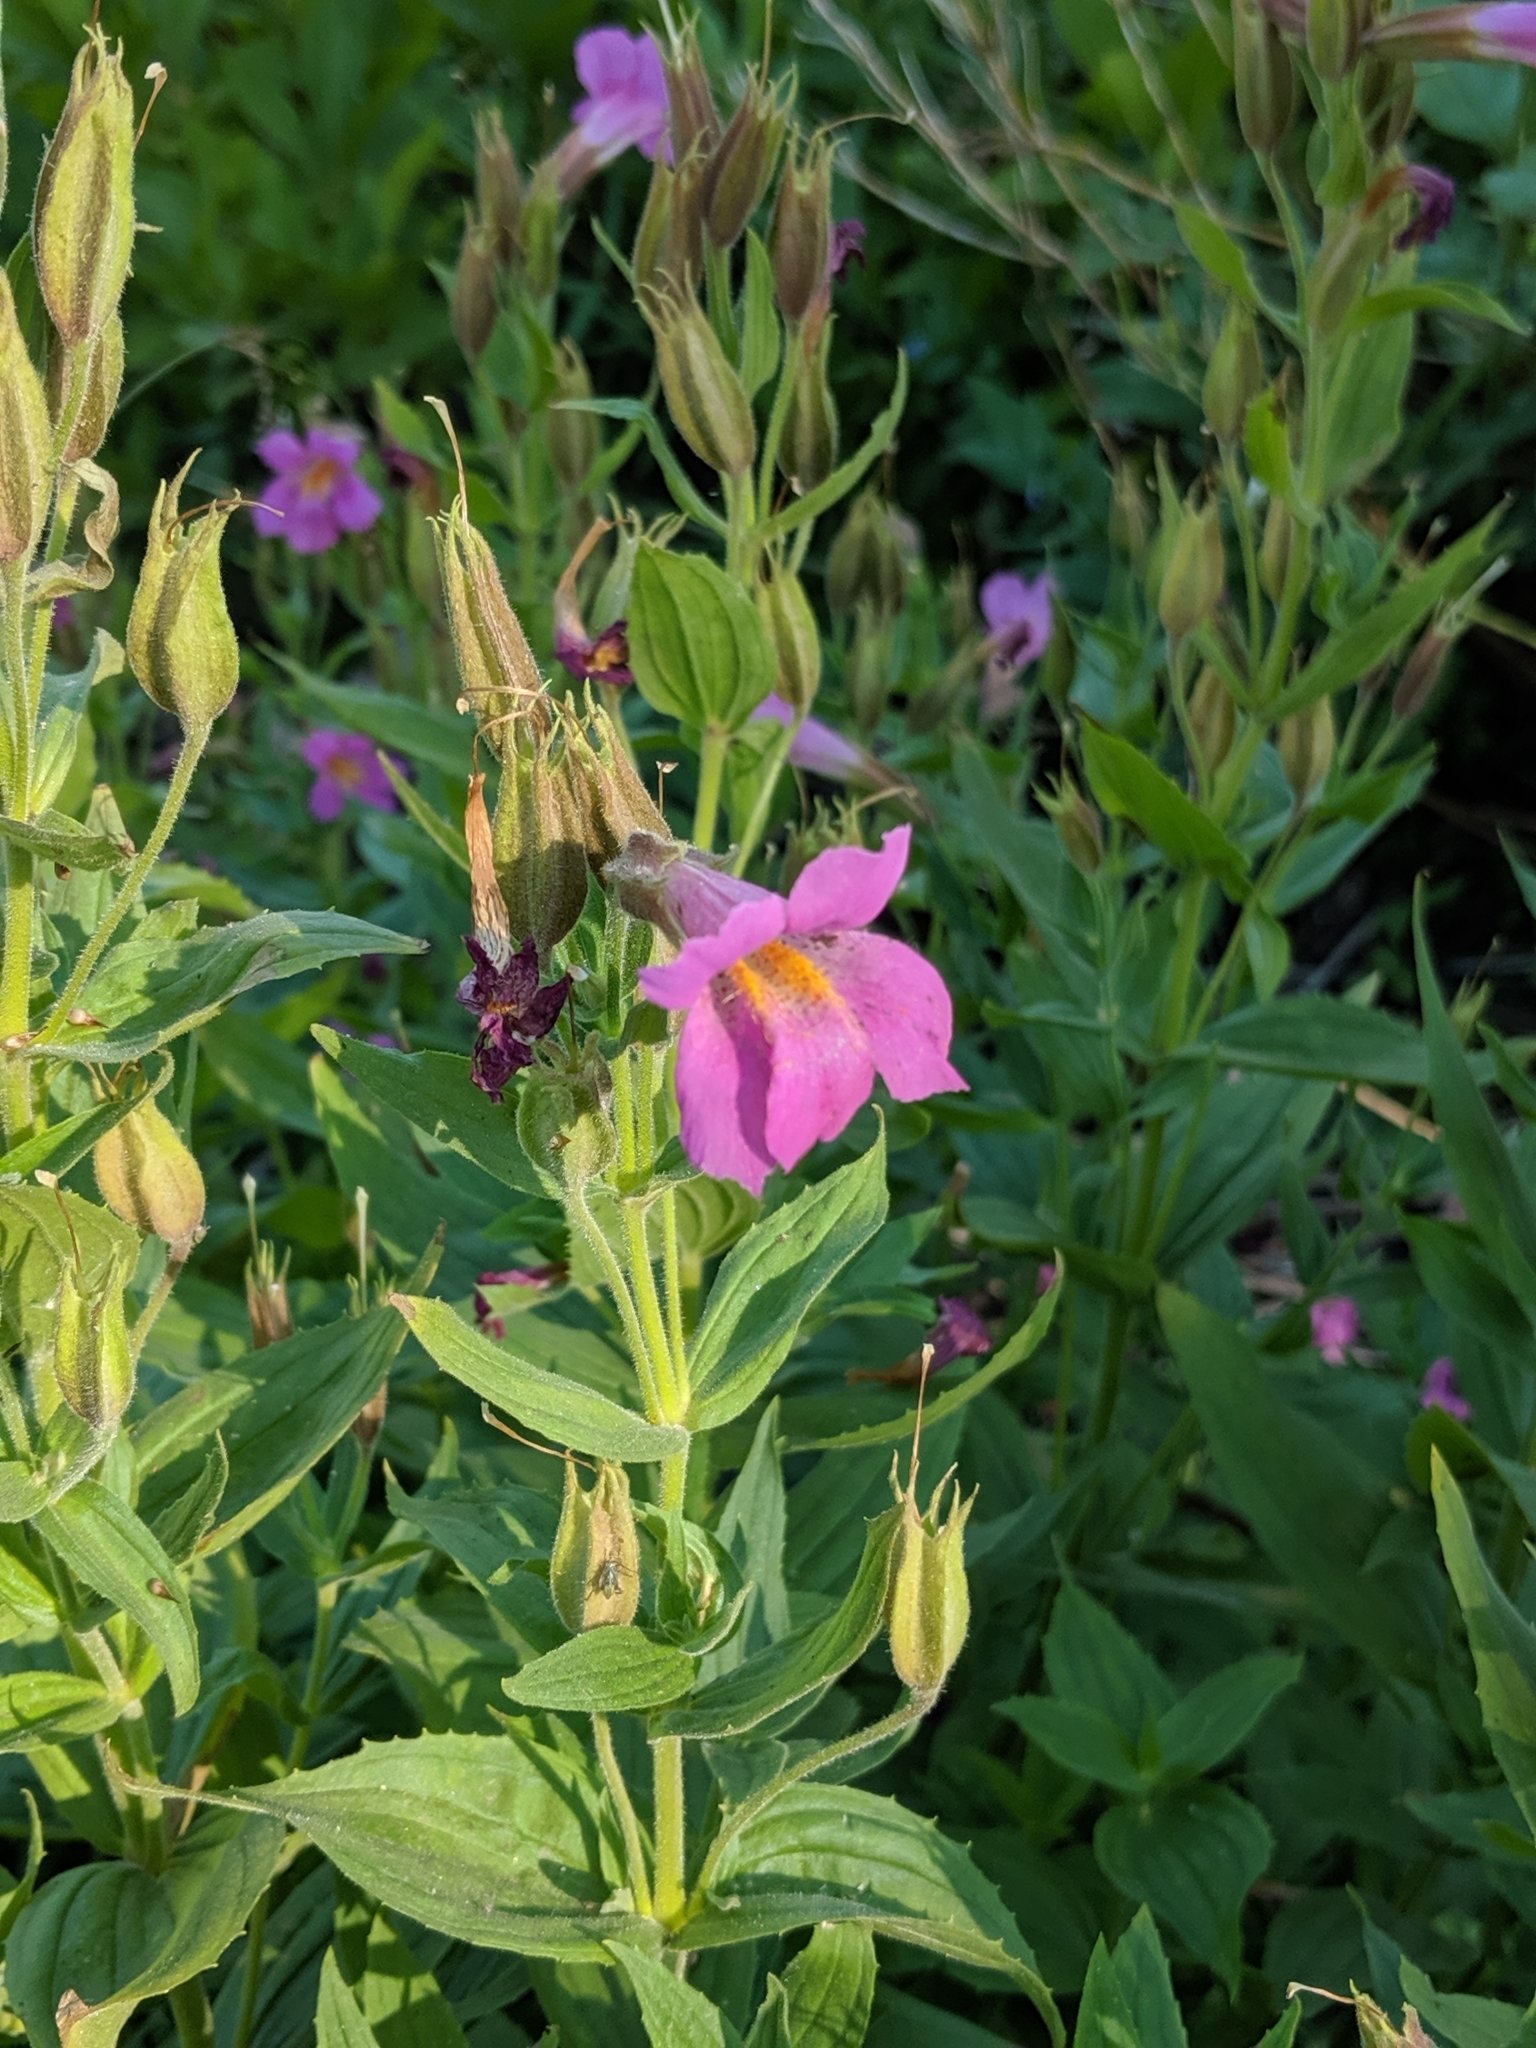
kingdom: Plantae
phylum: Tracheophyta
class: Magnoliopsida
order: Lamiales
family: Phrymaceae
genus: Erythranthe
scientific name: Erythranthe lewisii
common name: Lewis's monkey-flower
